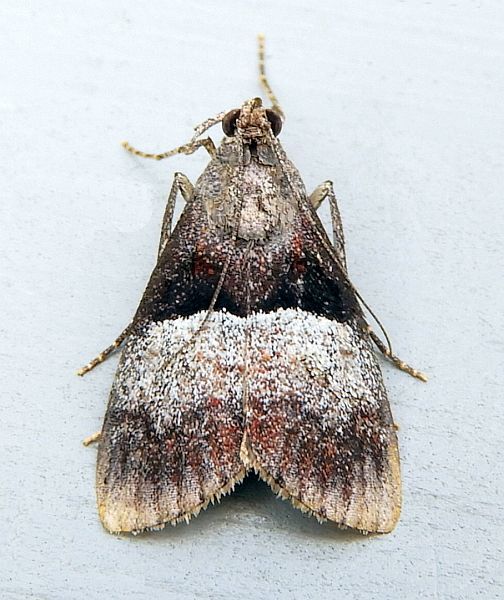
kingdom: Animalia
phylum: Arthropoda
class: Insecta
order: Lepidoptera
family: Pyralidae
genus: Pococera
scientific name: Pococera robustella
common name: Pine webworm moth
